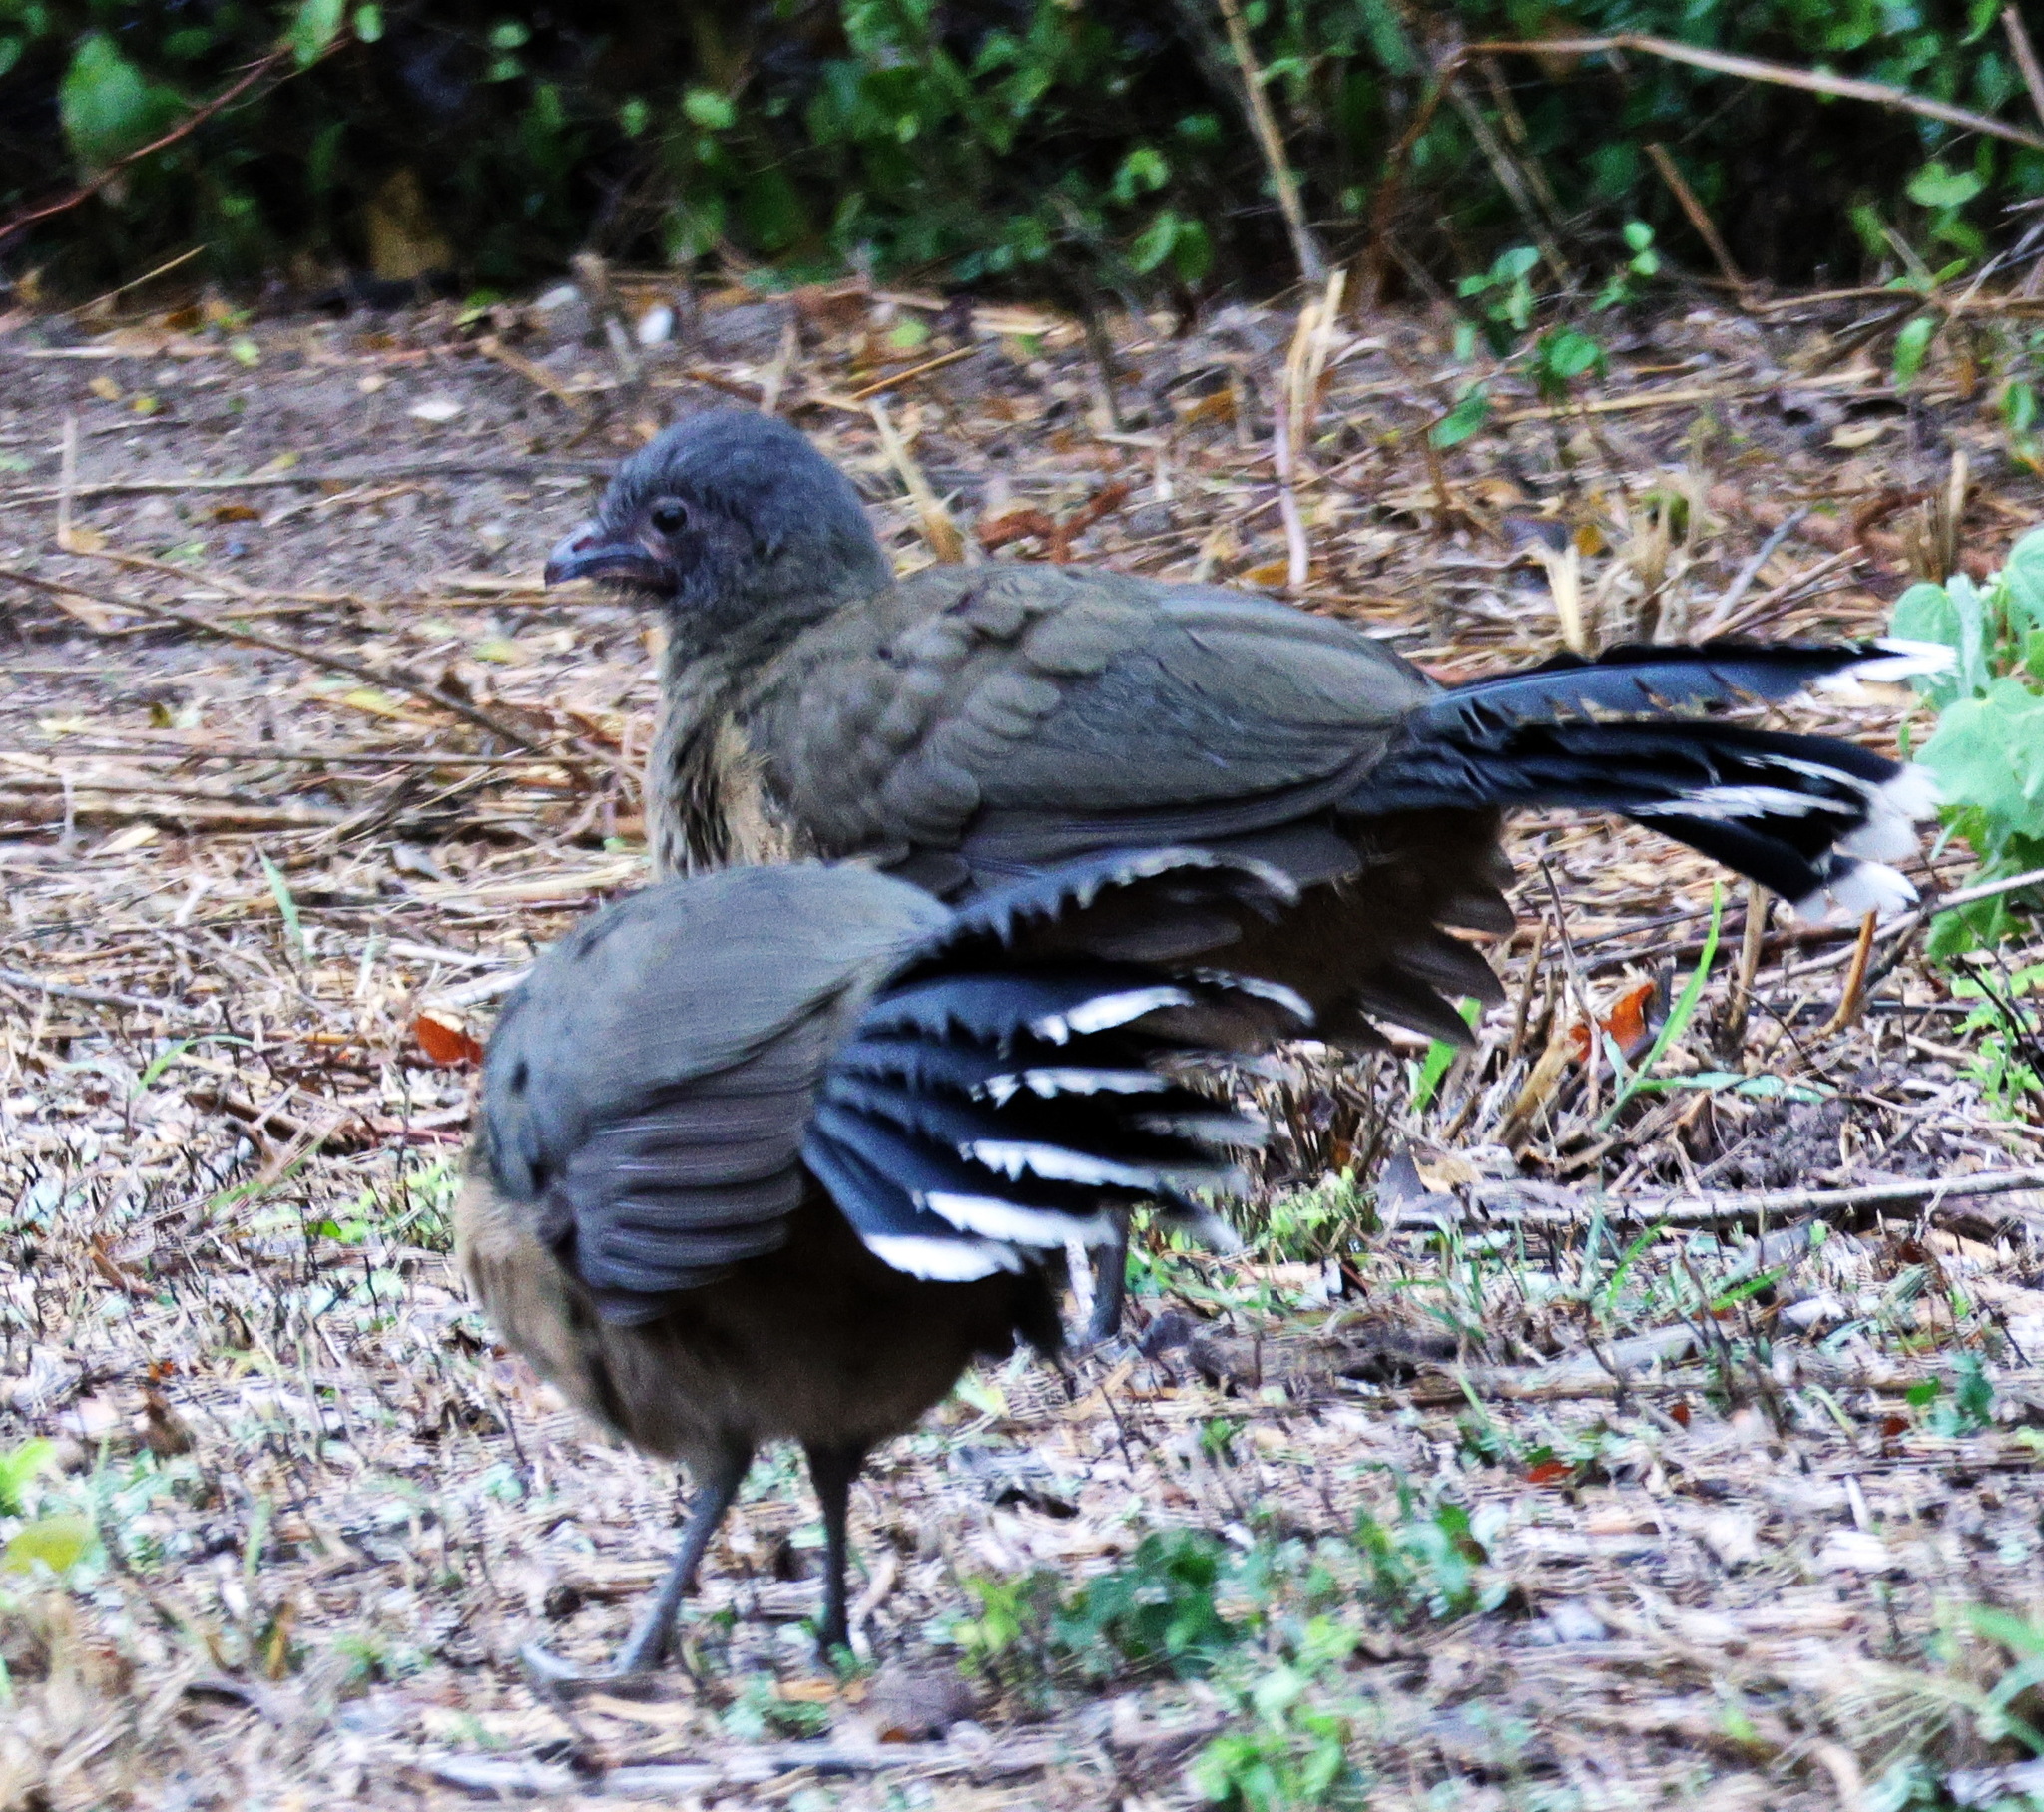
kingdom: Animalia
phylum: Chordata
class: Aves
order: Galliformes
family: Cracidae
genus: Ortalis
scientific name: Ortalis vetula
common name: Plain chachalaca
